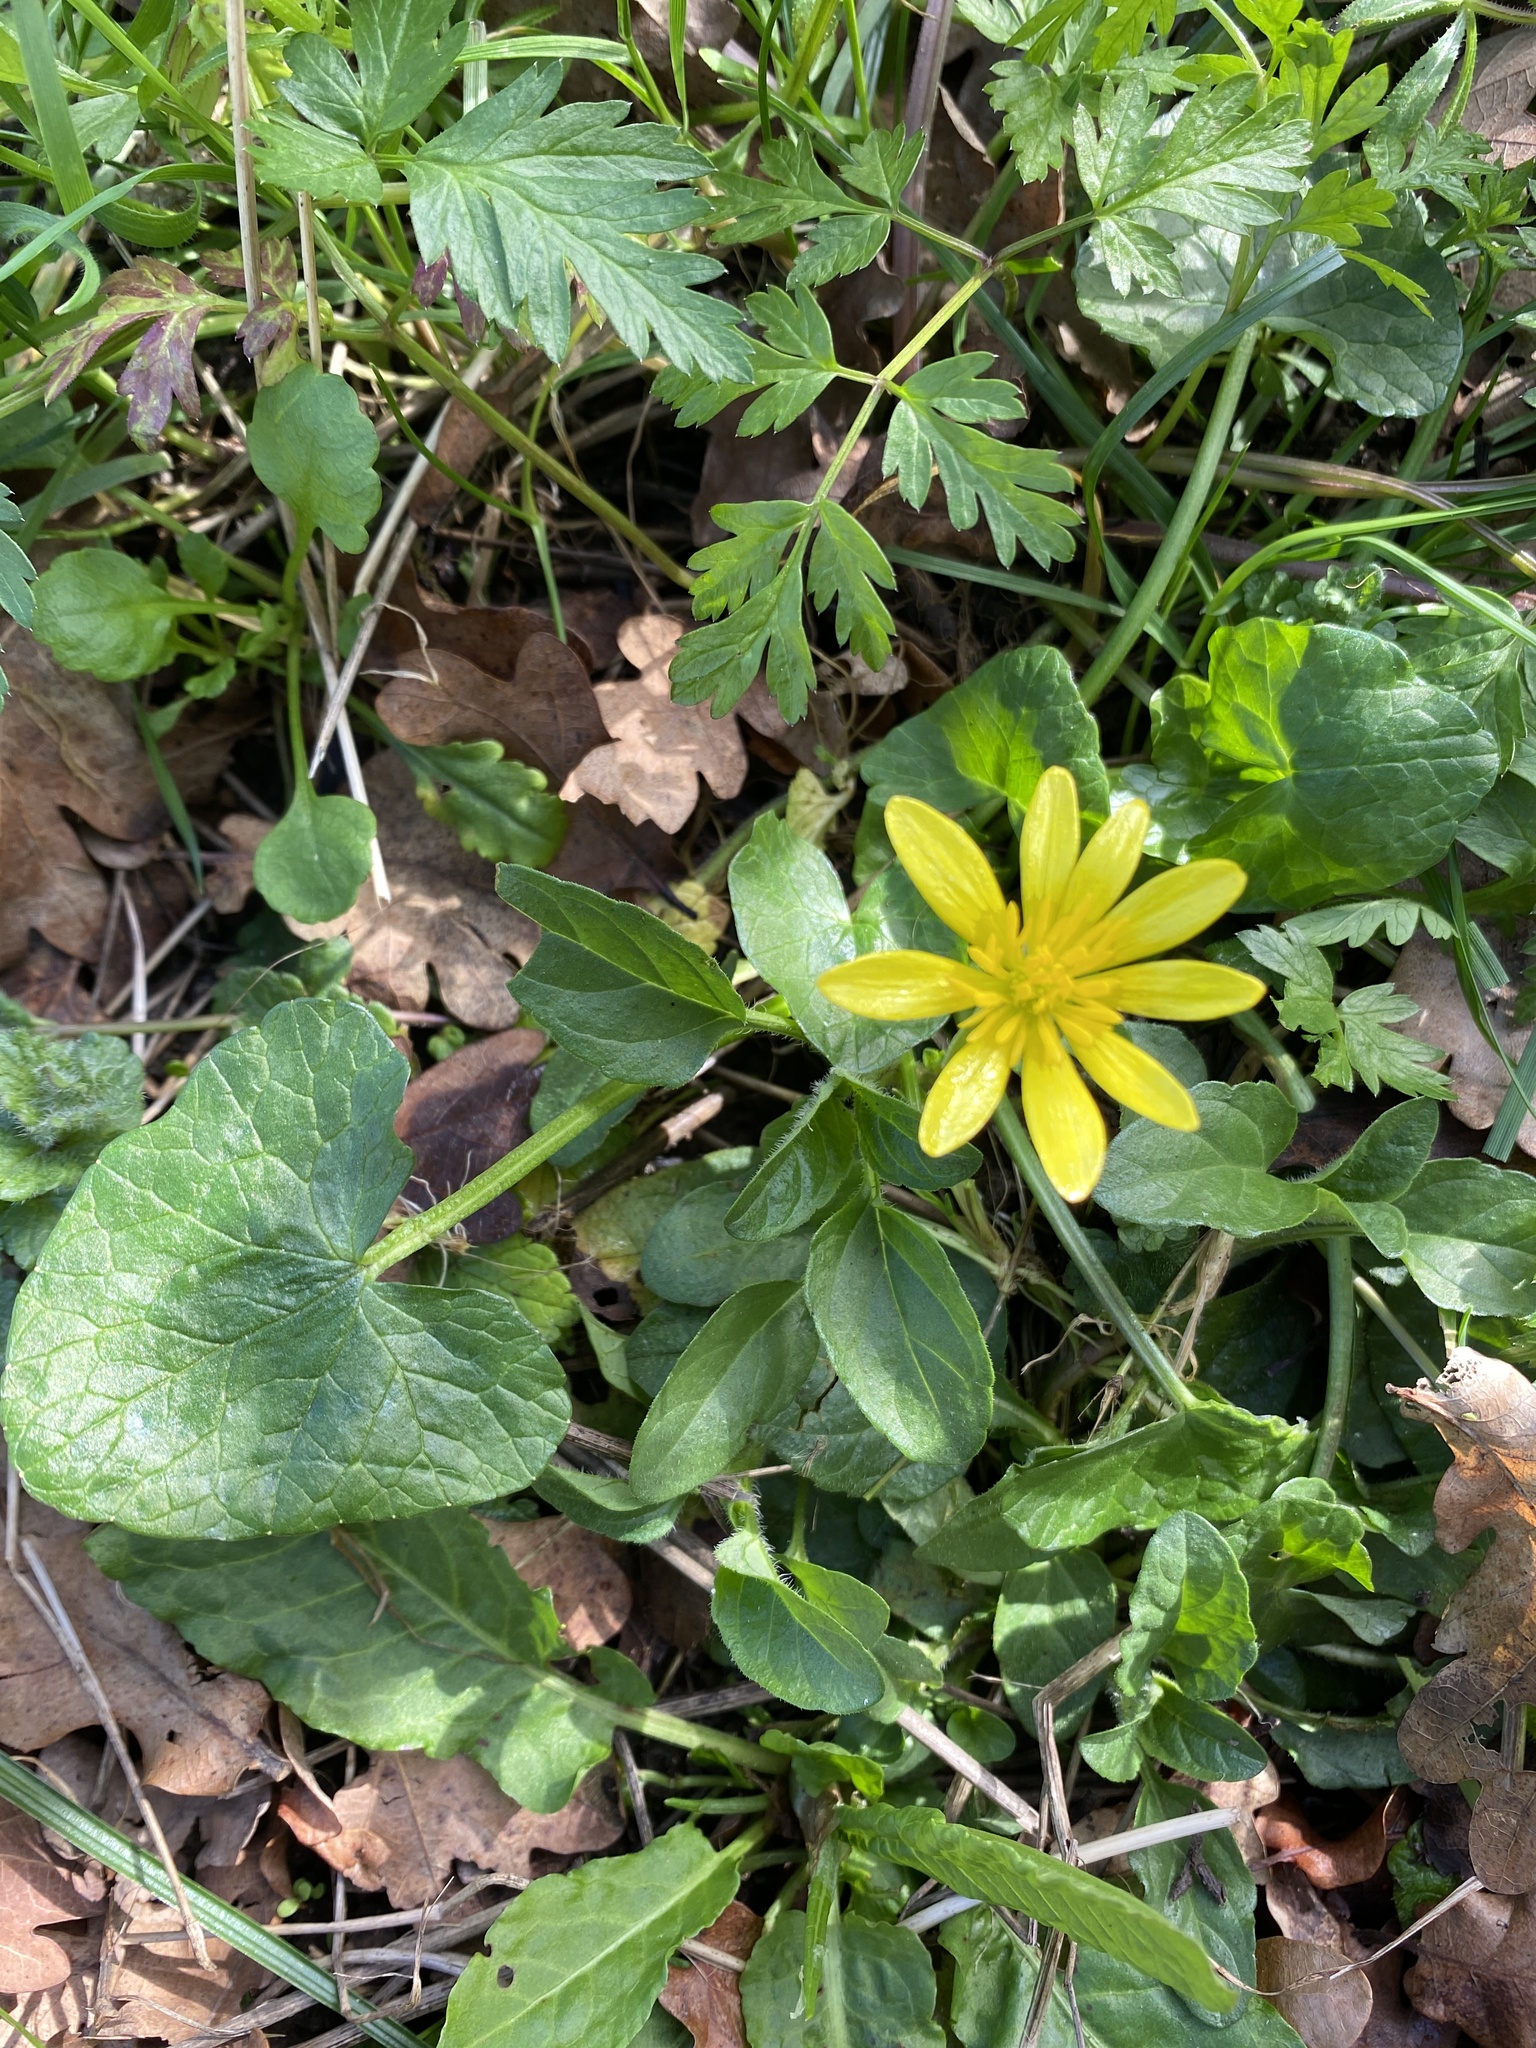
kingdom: Plantae
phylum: Tracheophyta
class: Magnoliopsida
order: Ranunculales
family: Ranunculaceae
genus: Ficaria
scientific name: Ficaria verna
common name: Lesser celandine
